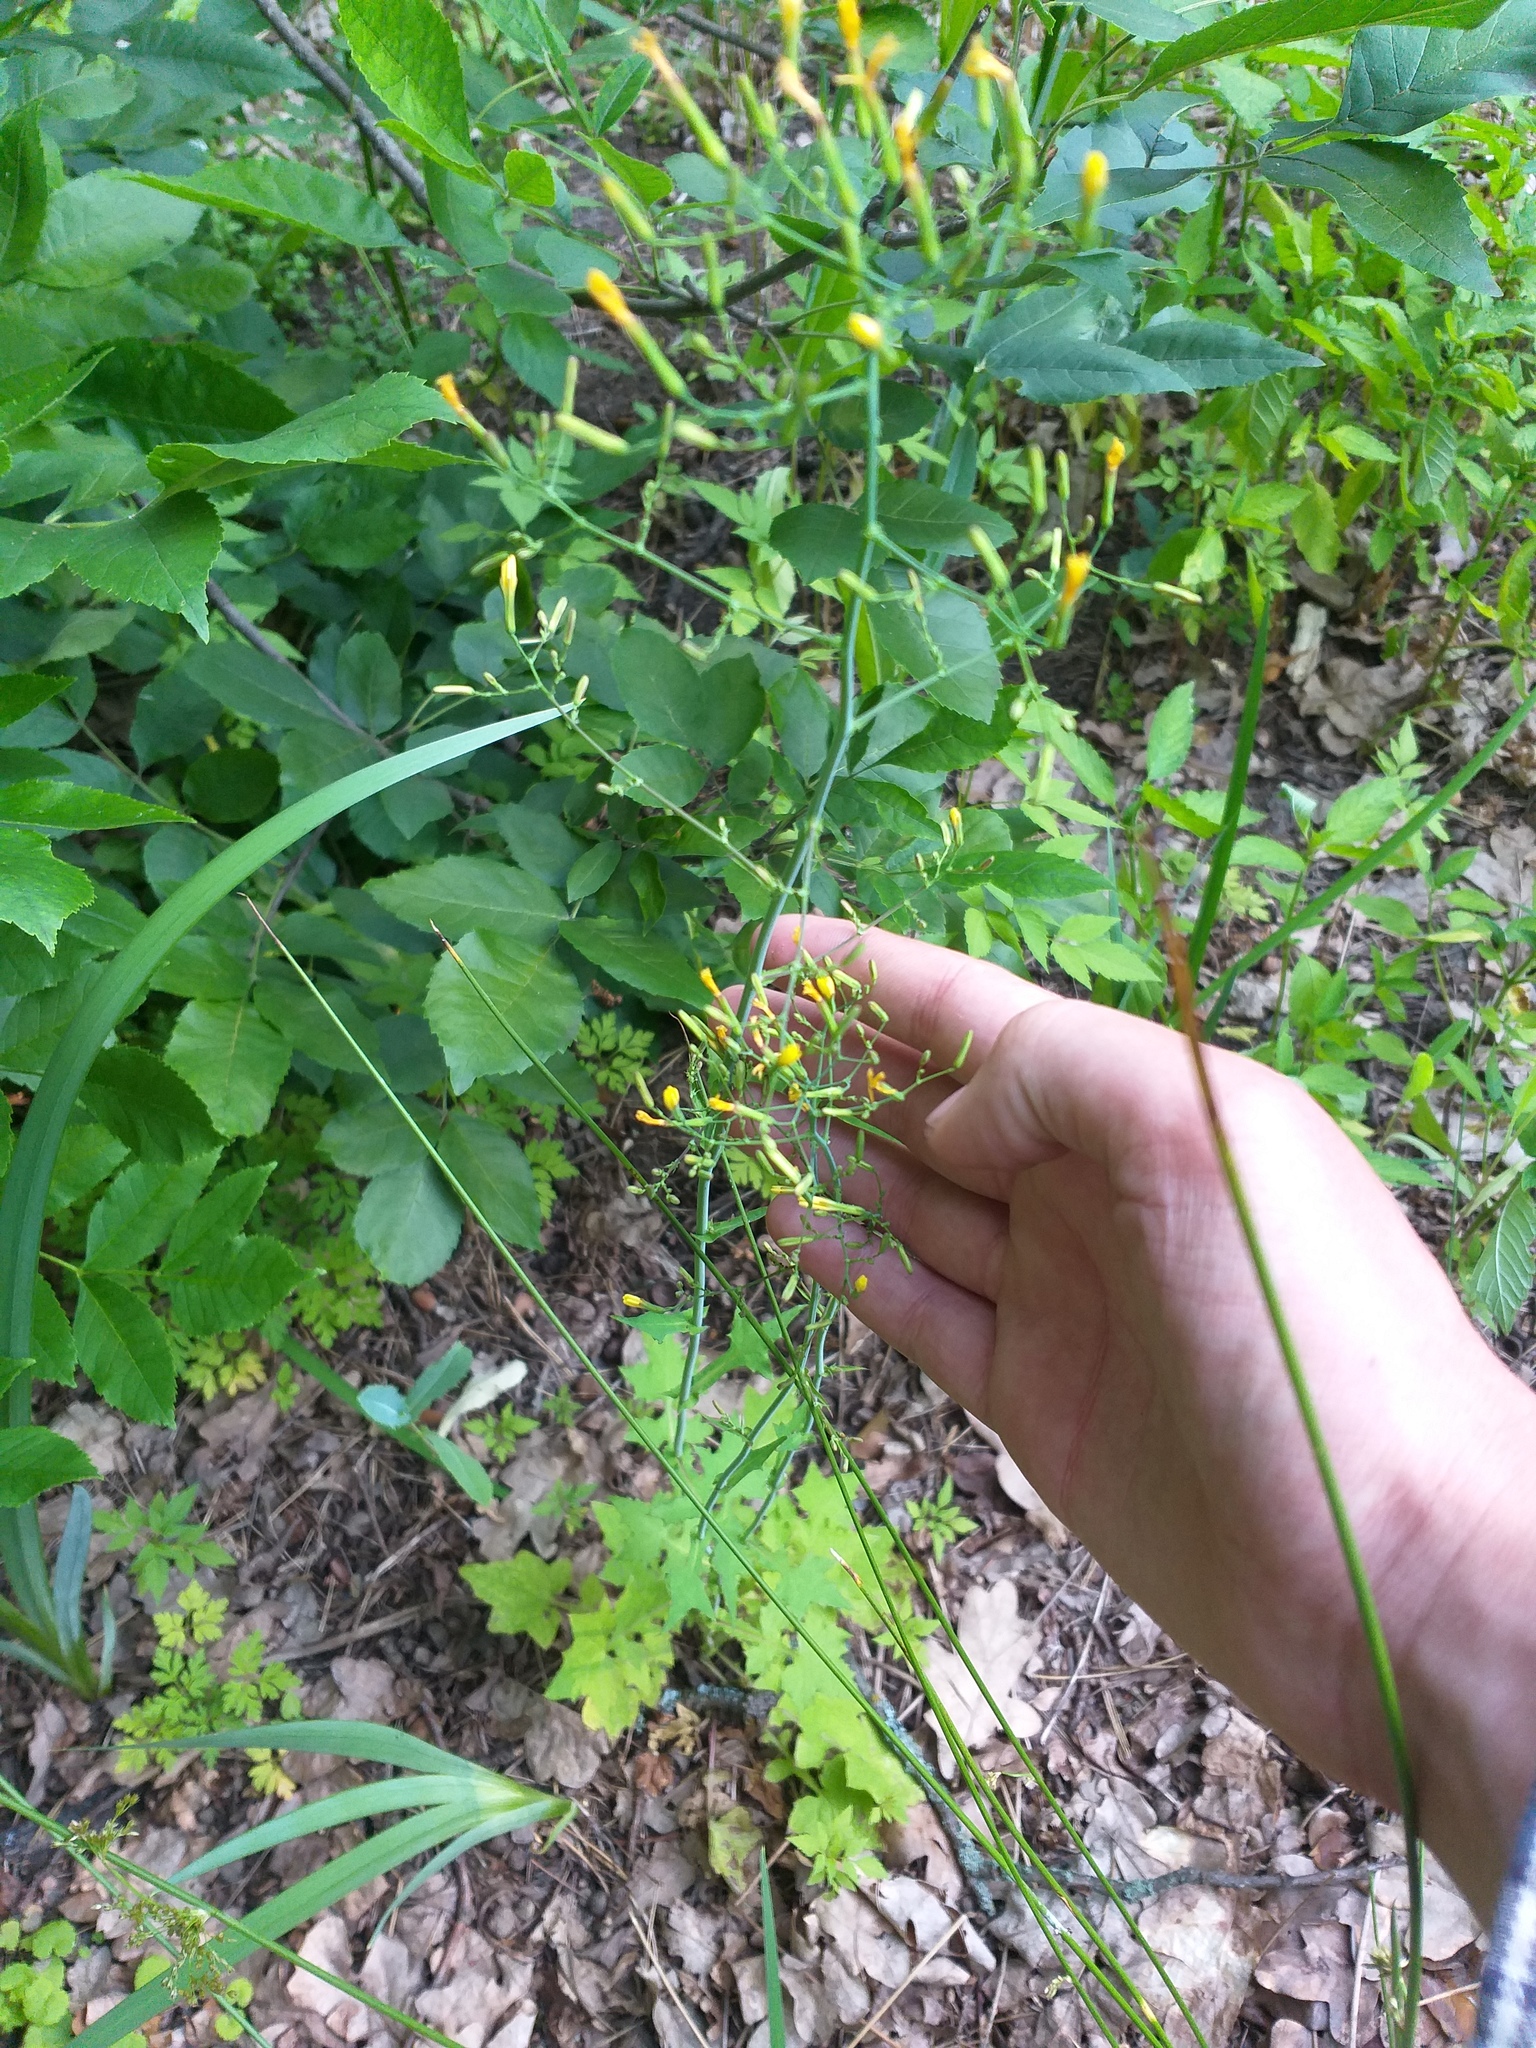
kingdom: Plantae
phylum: Tracheophyta
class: Magnoliopsida
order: Asterales
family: Asteraceae
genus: Mycelis
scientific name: Mycelis muralis
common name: Wall lettuce
